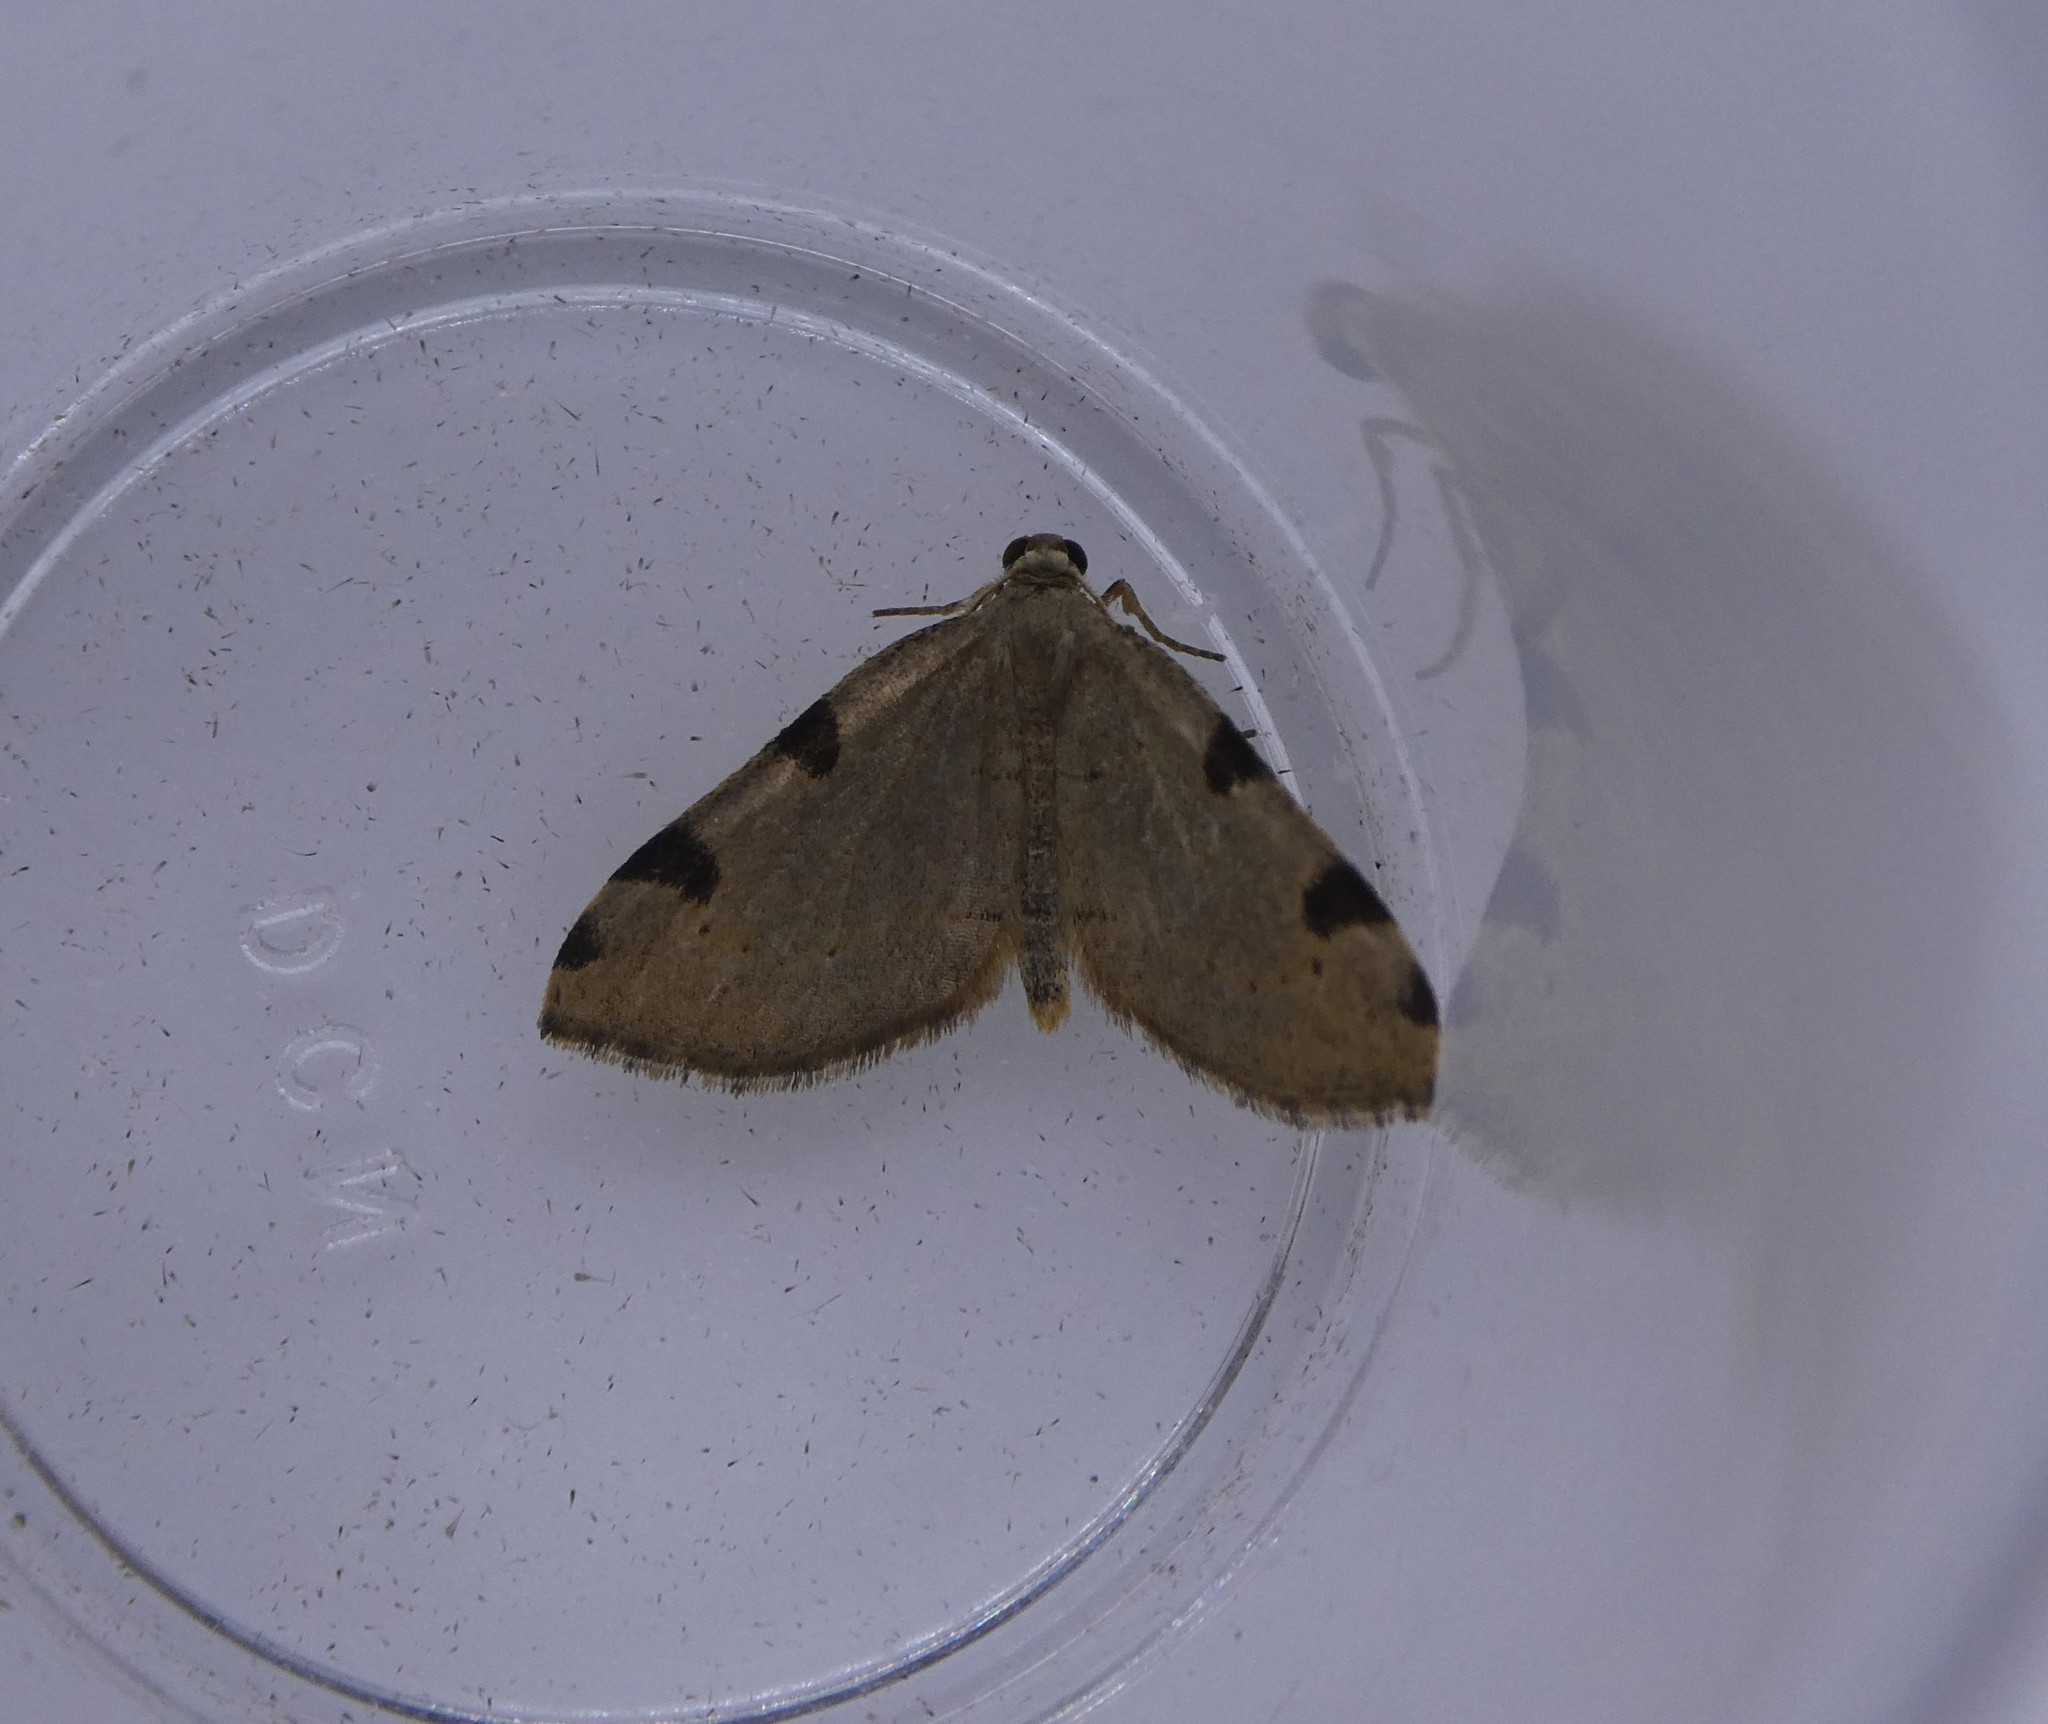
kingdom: Animalia
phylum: Arthropoda
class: Insecta
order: Lepidoptera
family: Geometridae
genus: Heterophleps
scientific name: Heterophleps triguttaria
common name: Three-spotted fillip
